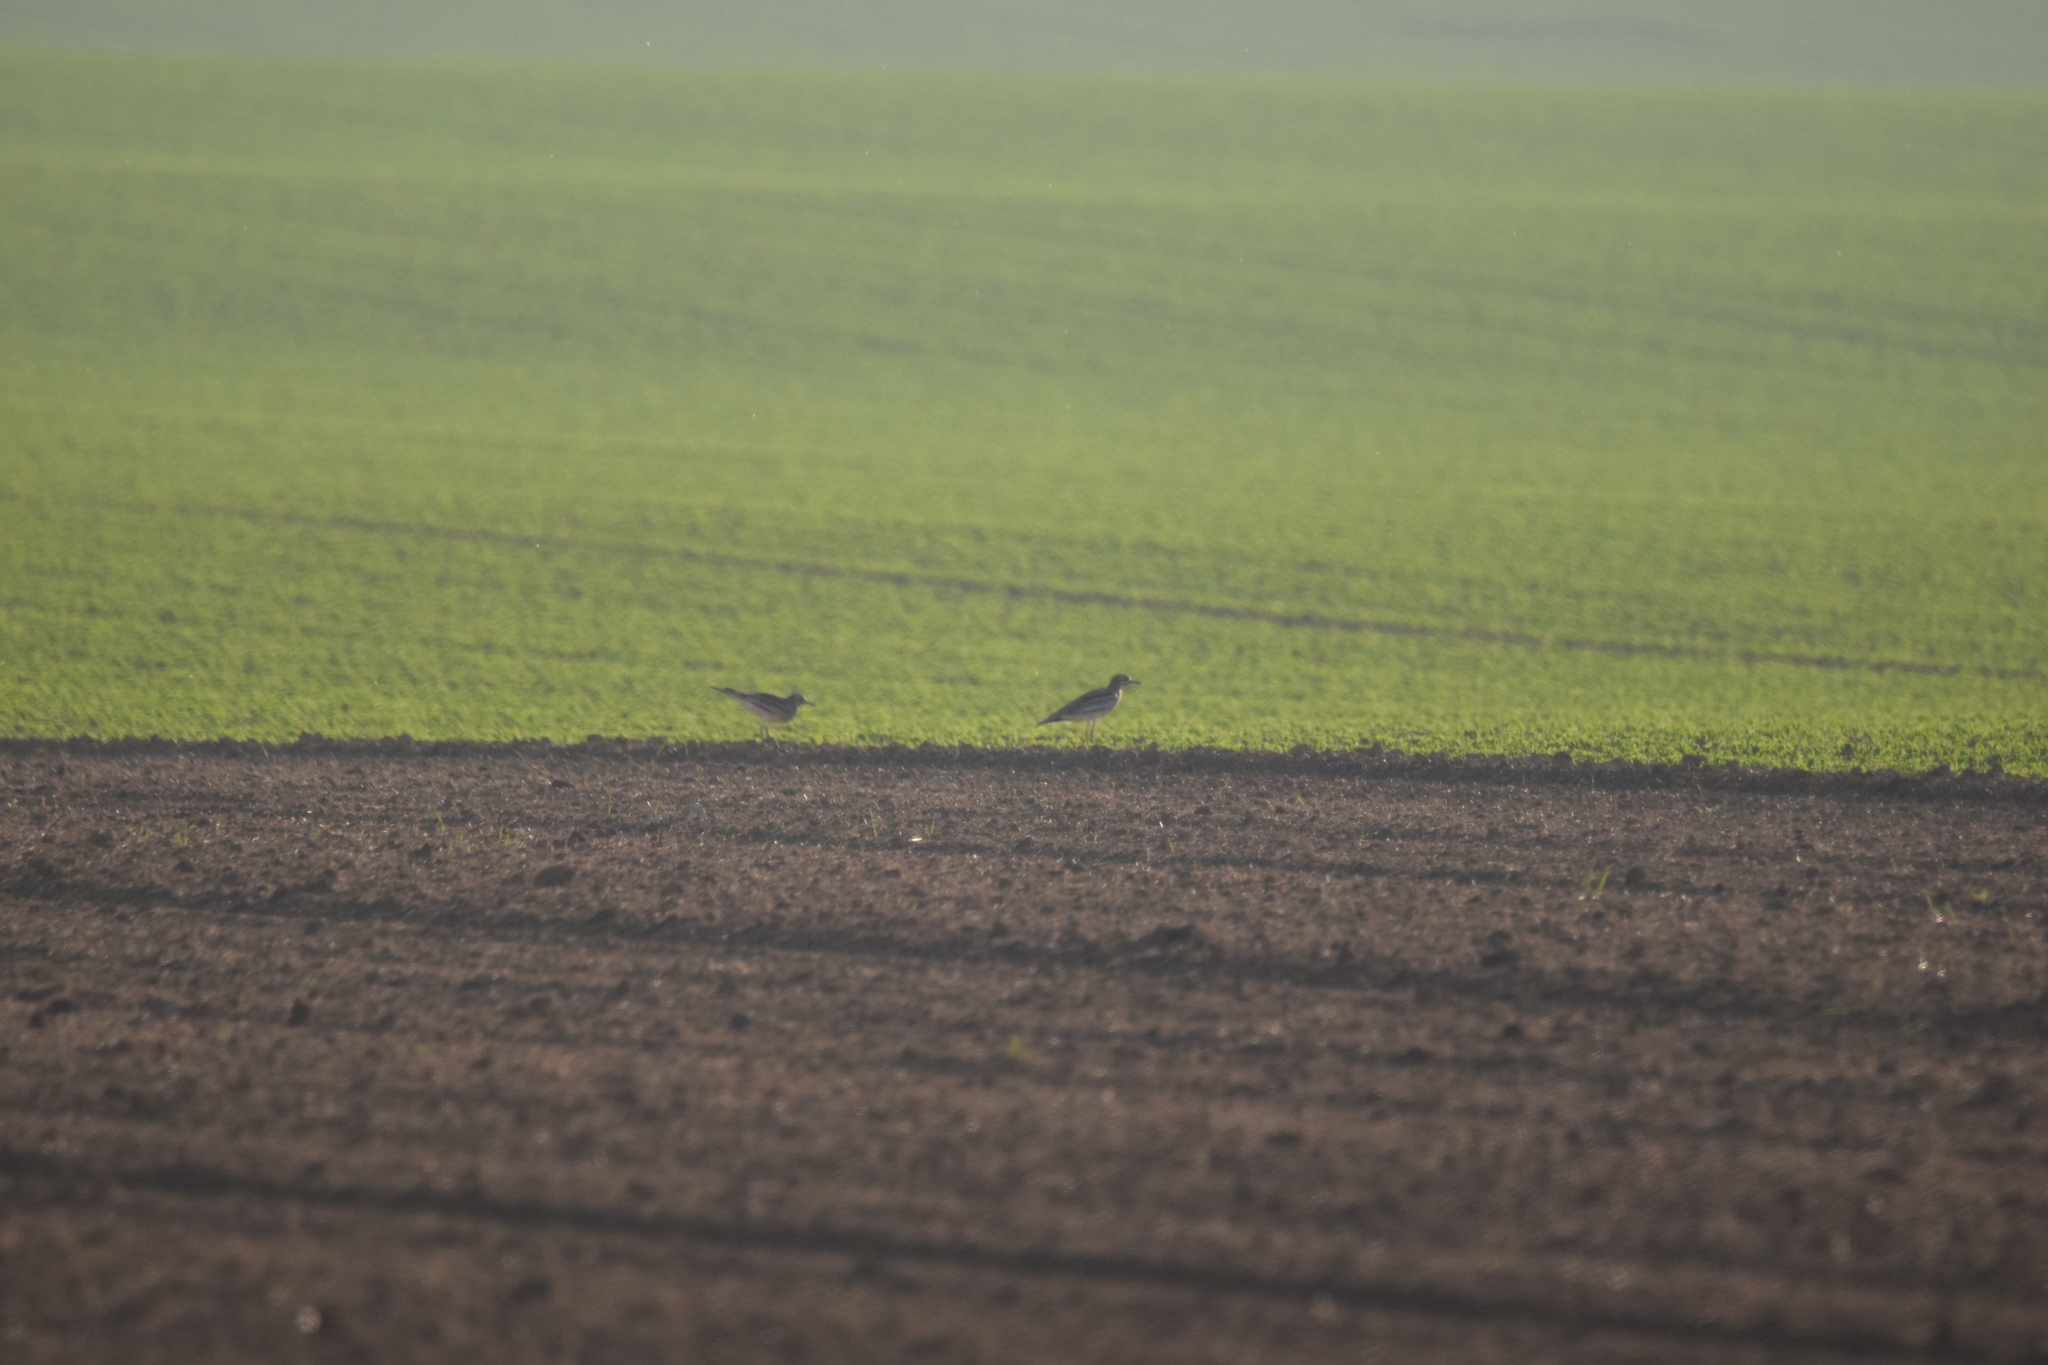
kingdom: Animalia
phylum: Chordata
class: Aves
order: Charadriiformes
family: Burhinidae
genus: Burhinus
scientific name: Burhinus oedicnemus
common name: Eurasian stone-curlew
